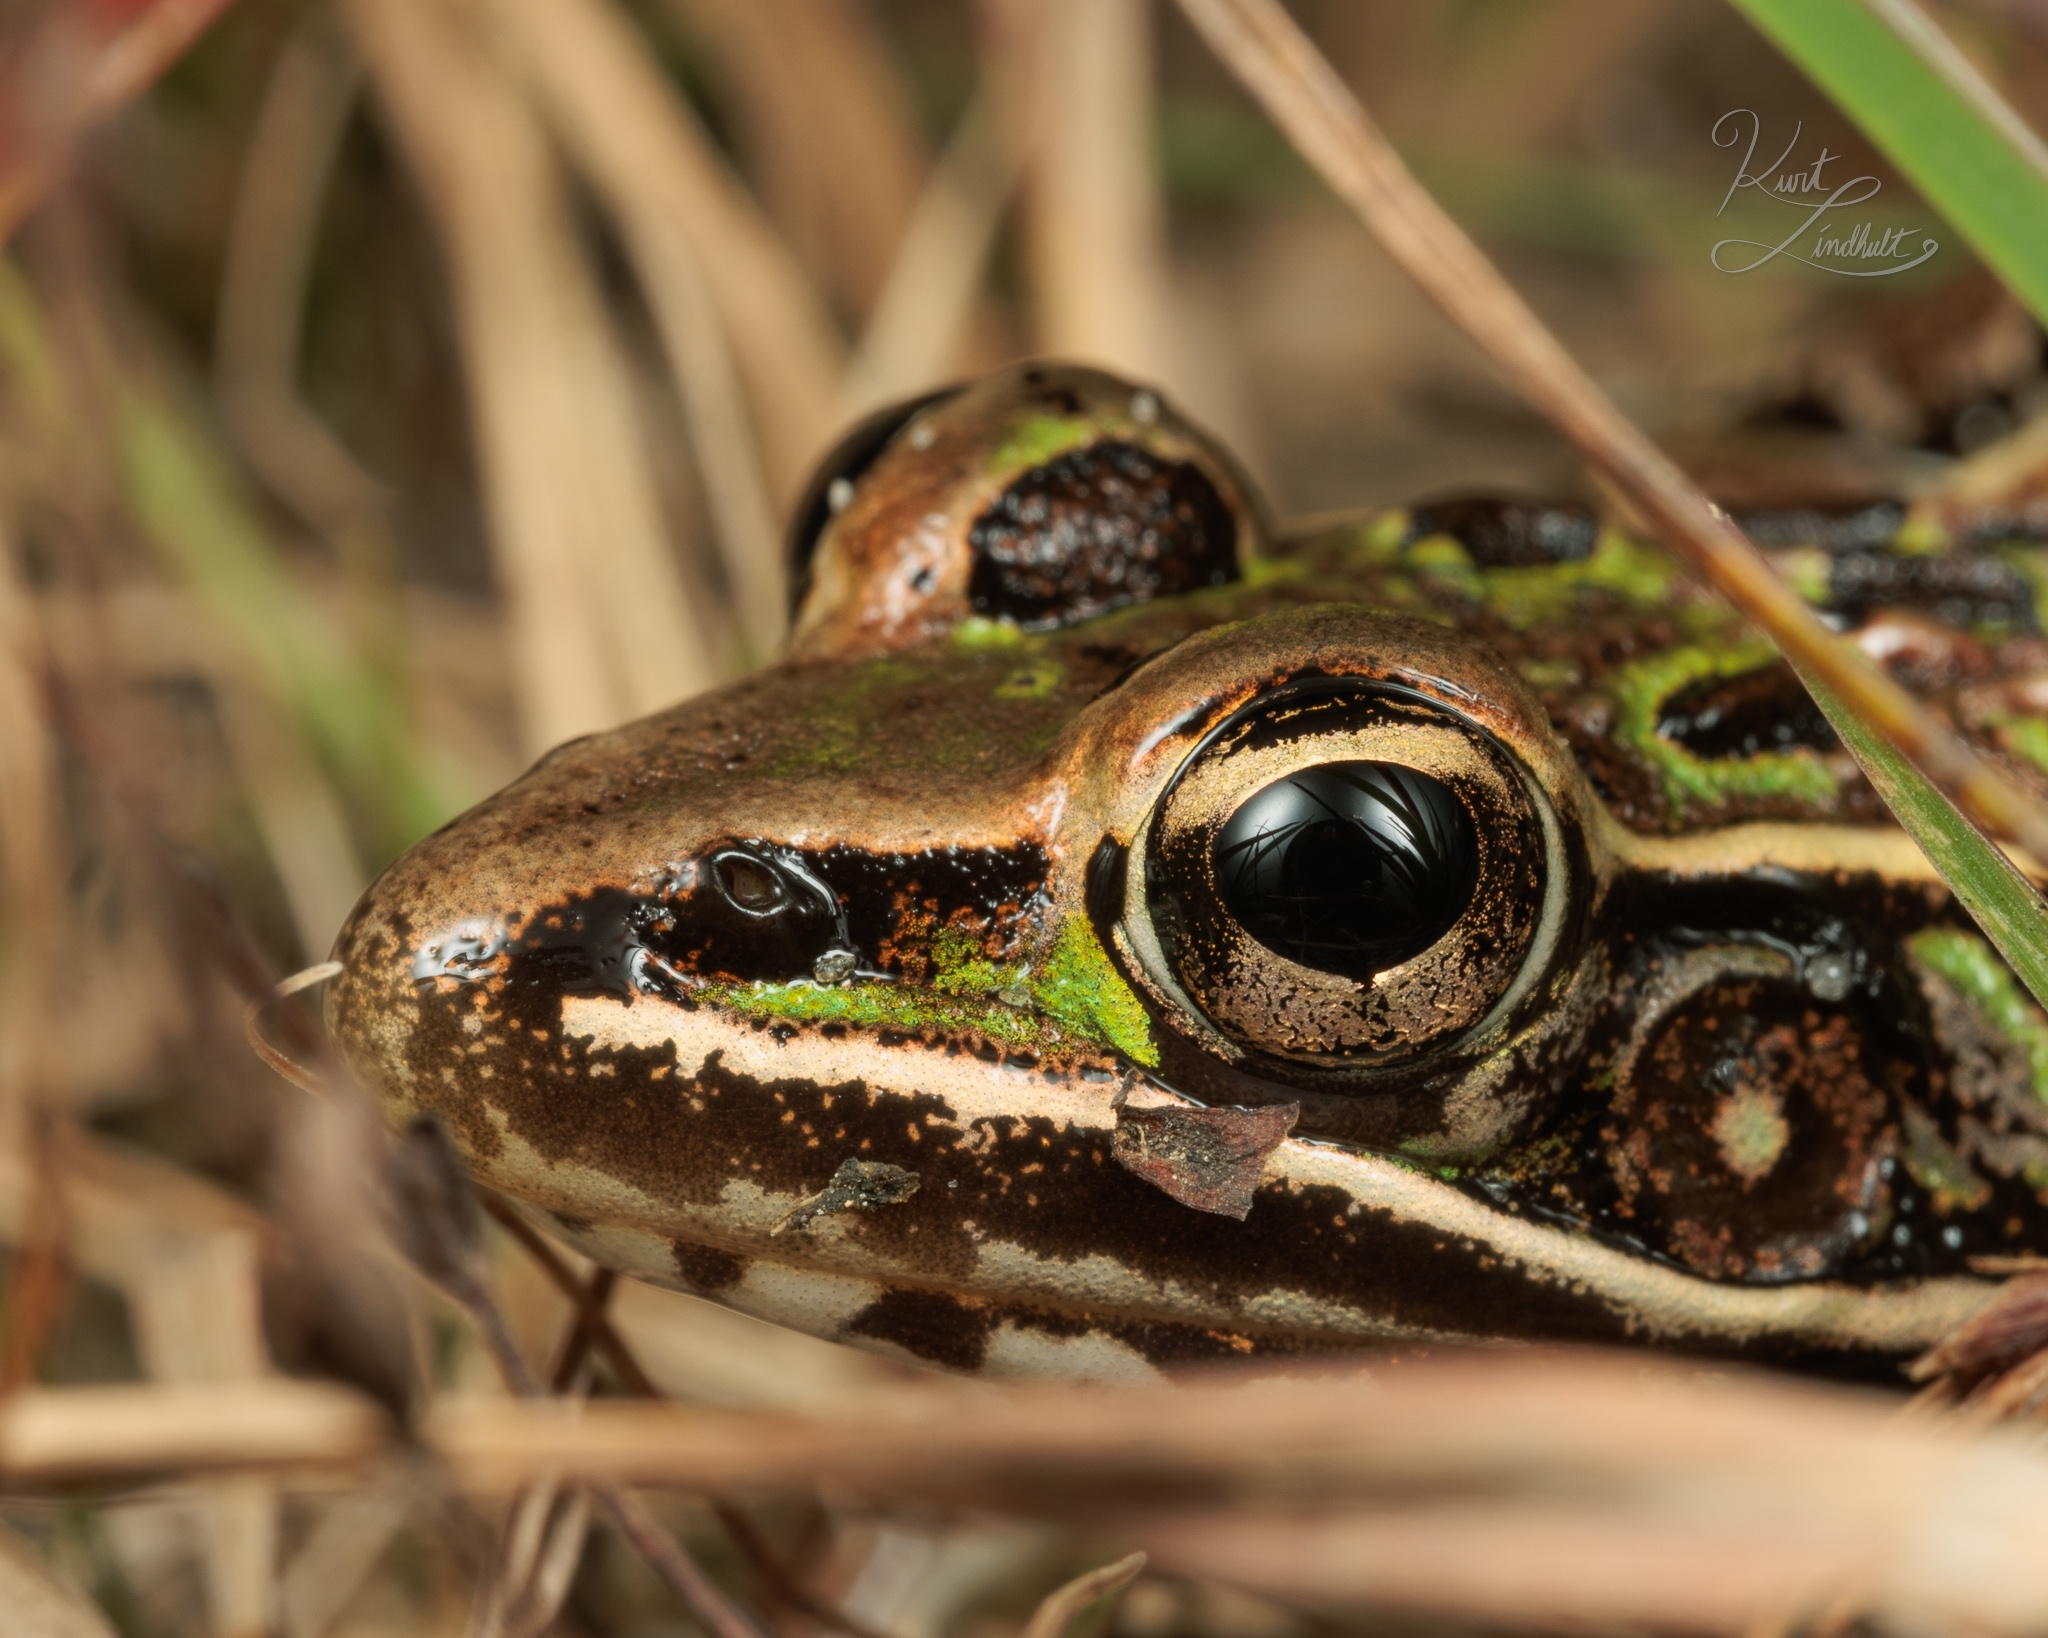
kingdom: Animalia
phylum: Chordata
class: Amphibia
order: Anura
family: Ranidae
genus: Lithobates
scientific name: Lithobates sphenocephalus
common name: Southern leopard frog
